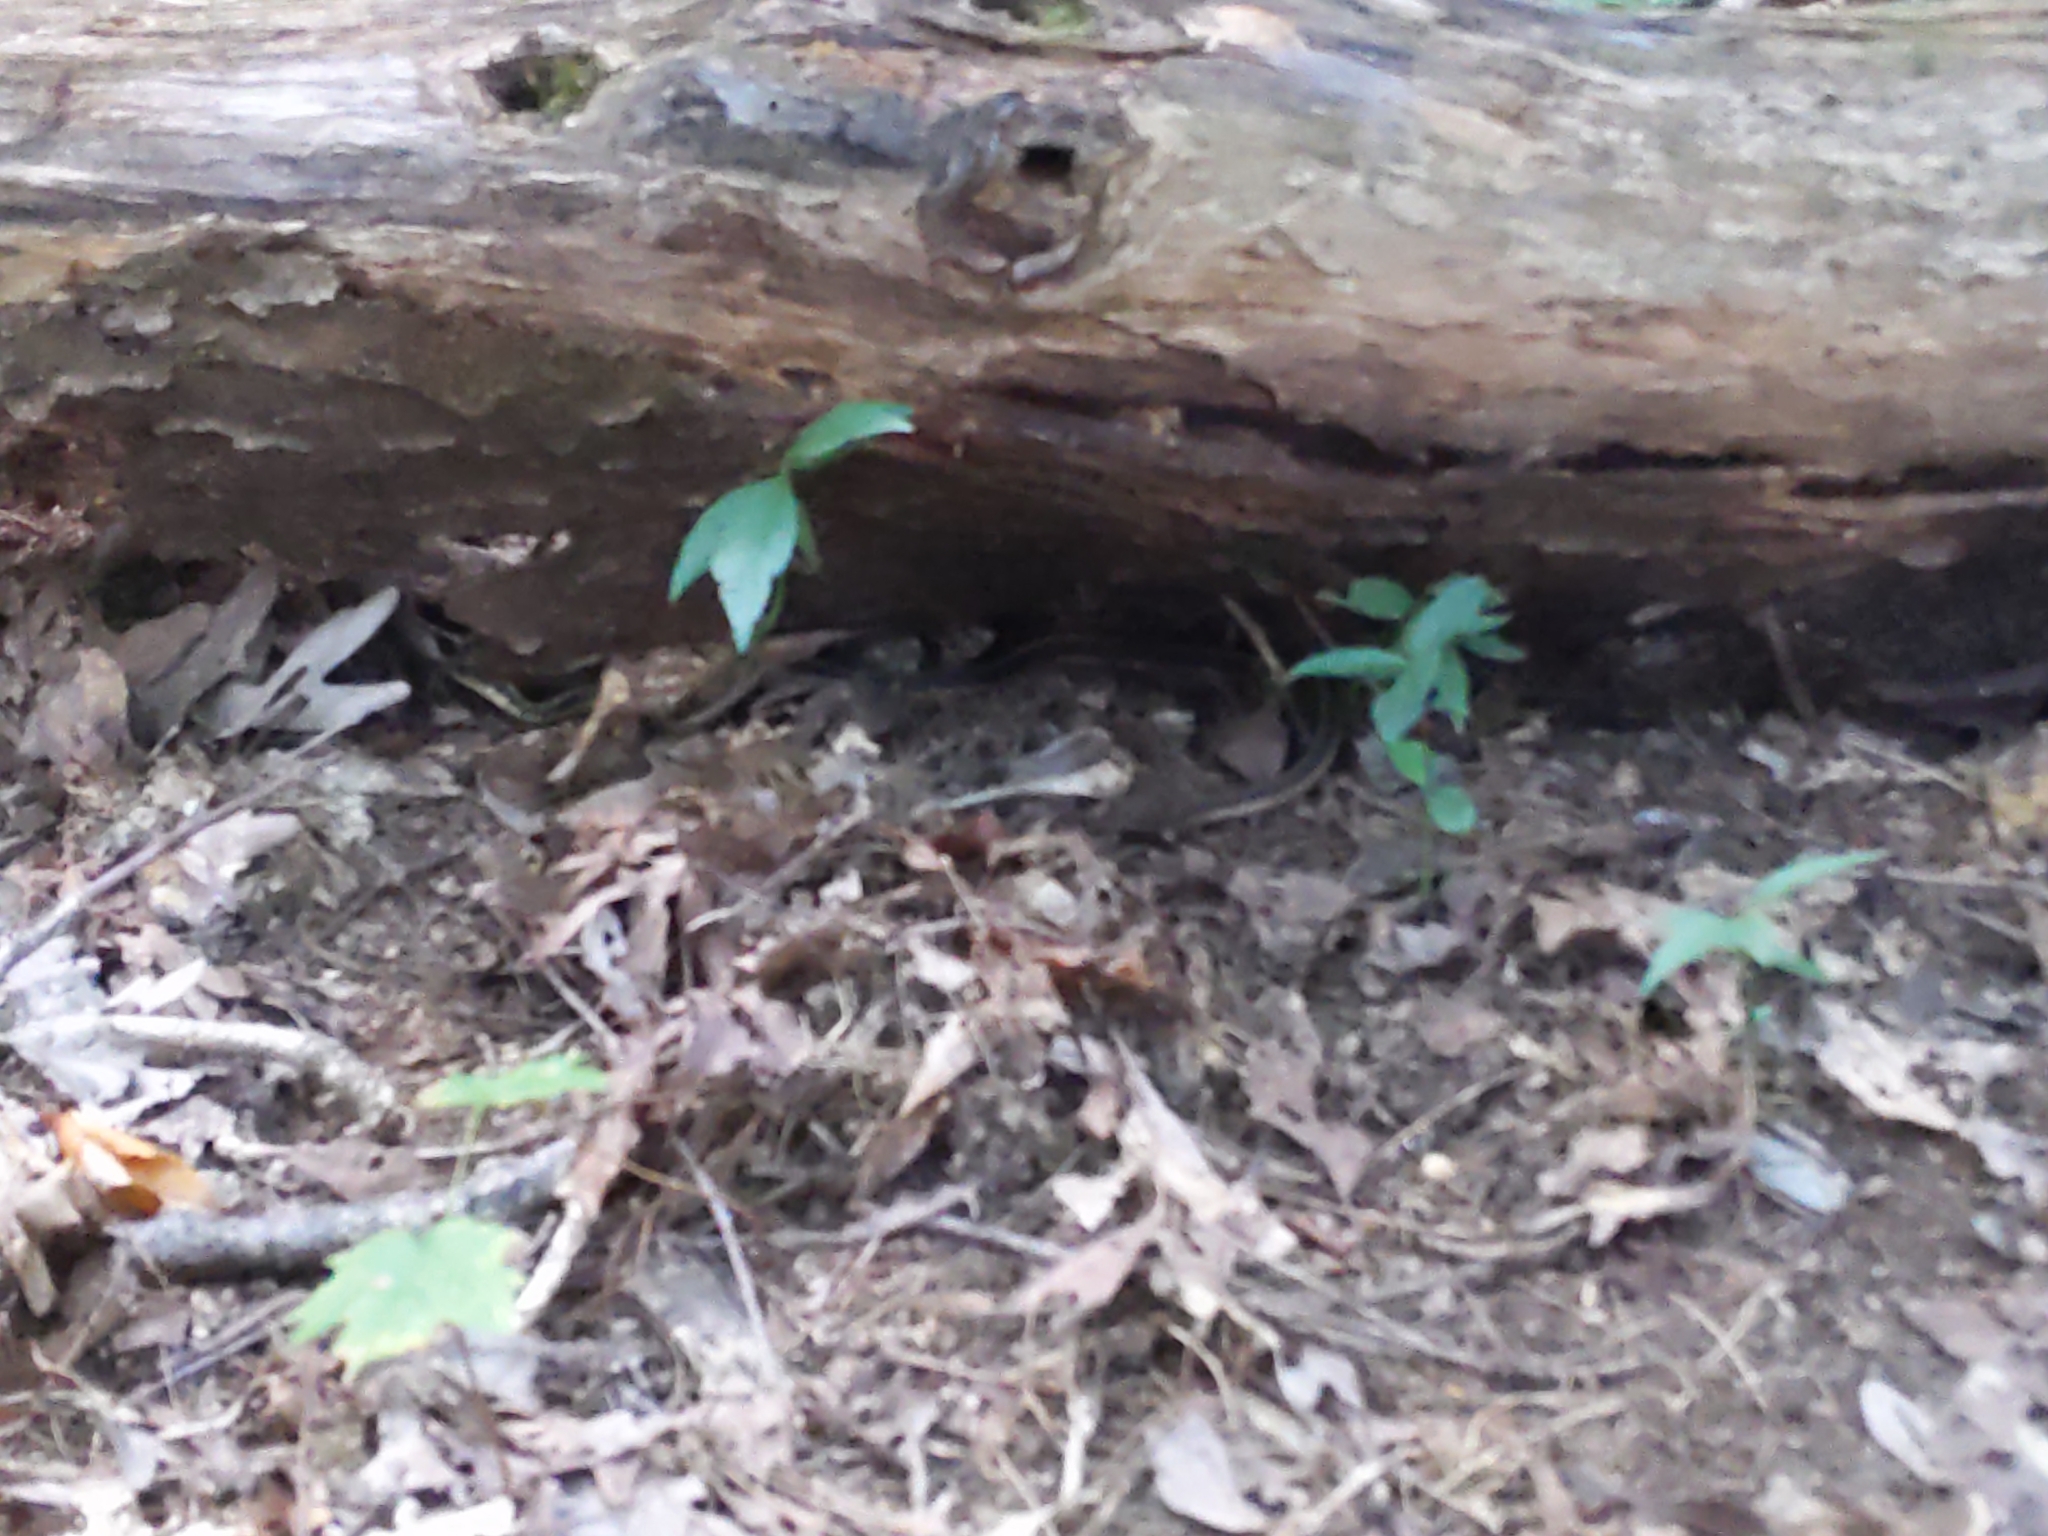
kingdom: Animalia
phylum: Chordata
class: Squamata
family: Colubridae
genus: Thamnophis
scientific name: Thamnophis sirtalis
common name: Common garter snake
